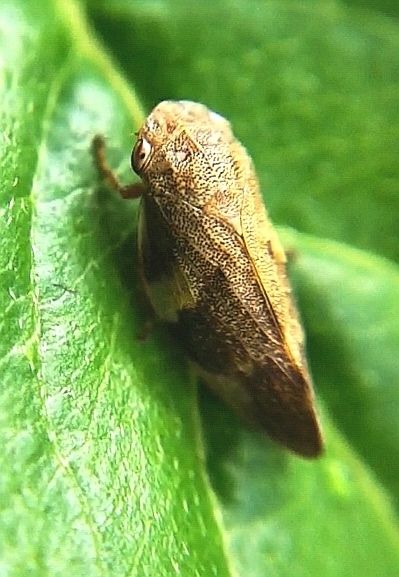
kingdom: Animalia
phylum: Arthropoda
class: Insecta
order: Hemiptera
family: Aphrophoridae
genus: Aphrophora
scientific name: Aphrophora alni
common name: European alder spittlebug
